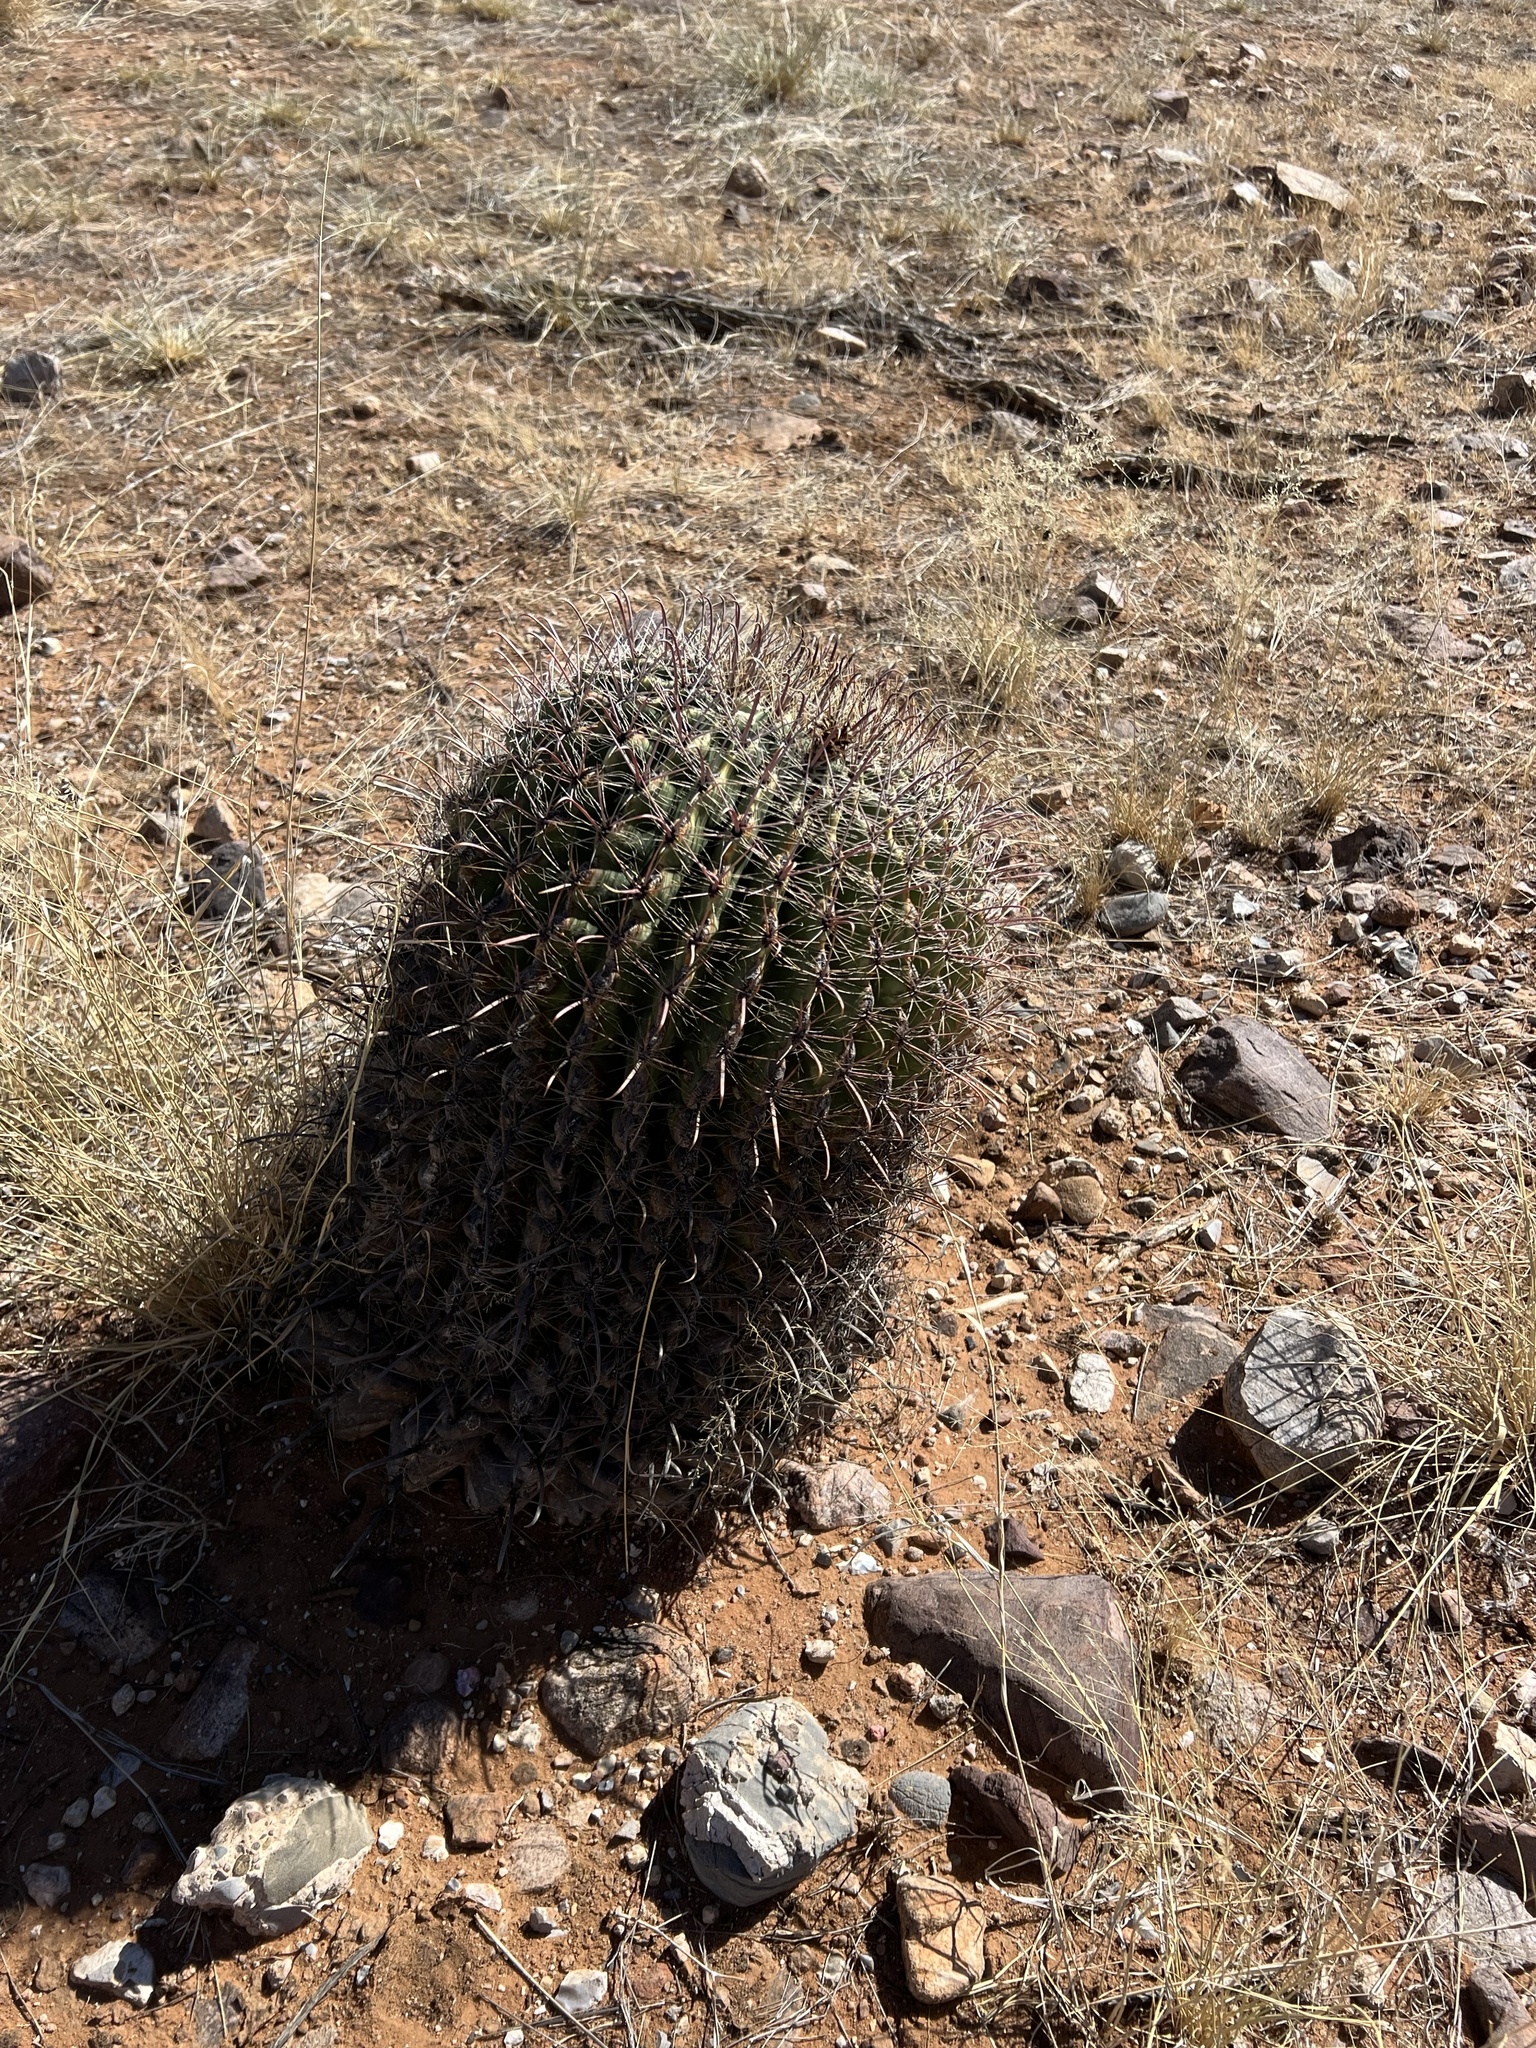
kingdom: Plantae
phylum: Tracheophyta
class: Magnoliopsida
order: Caryophyllales
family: Cactaceae
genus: Ferocactus
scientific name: Ferocactus wislizeni
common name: Candy barrel cactus
